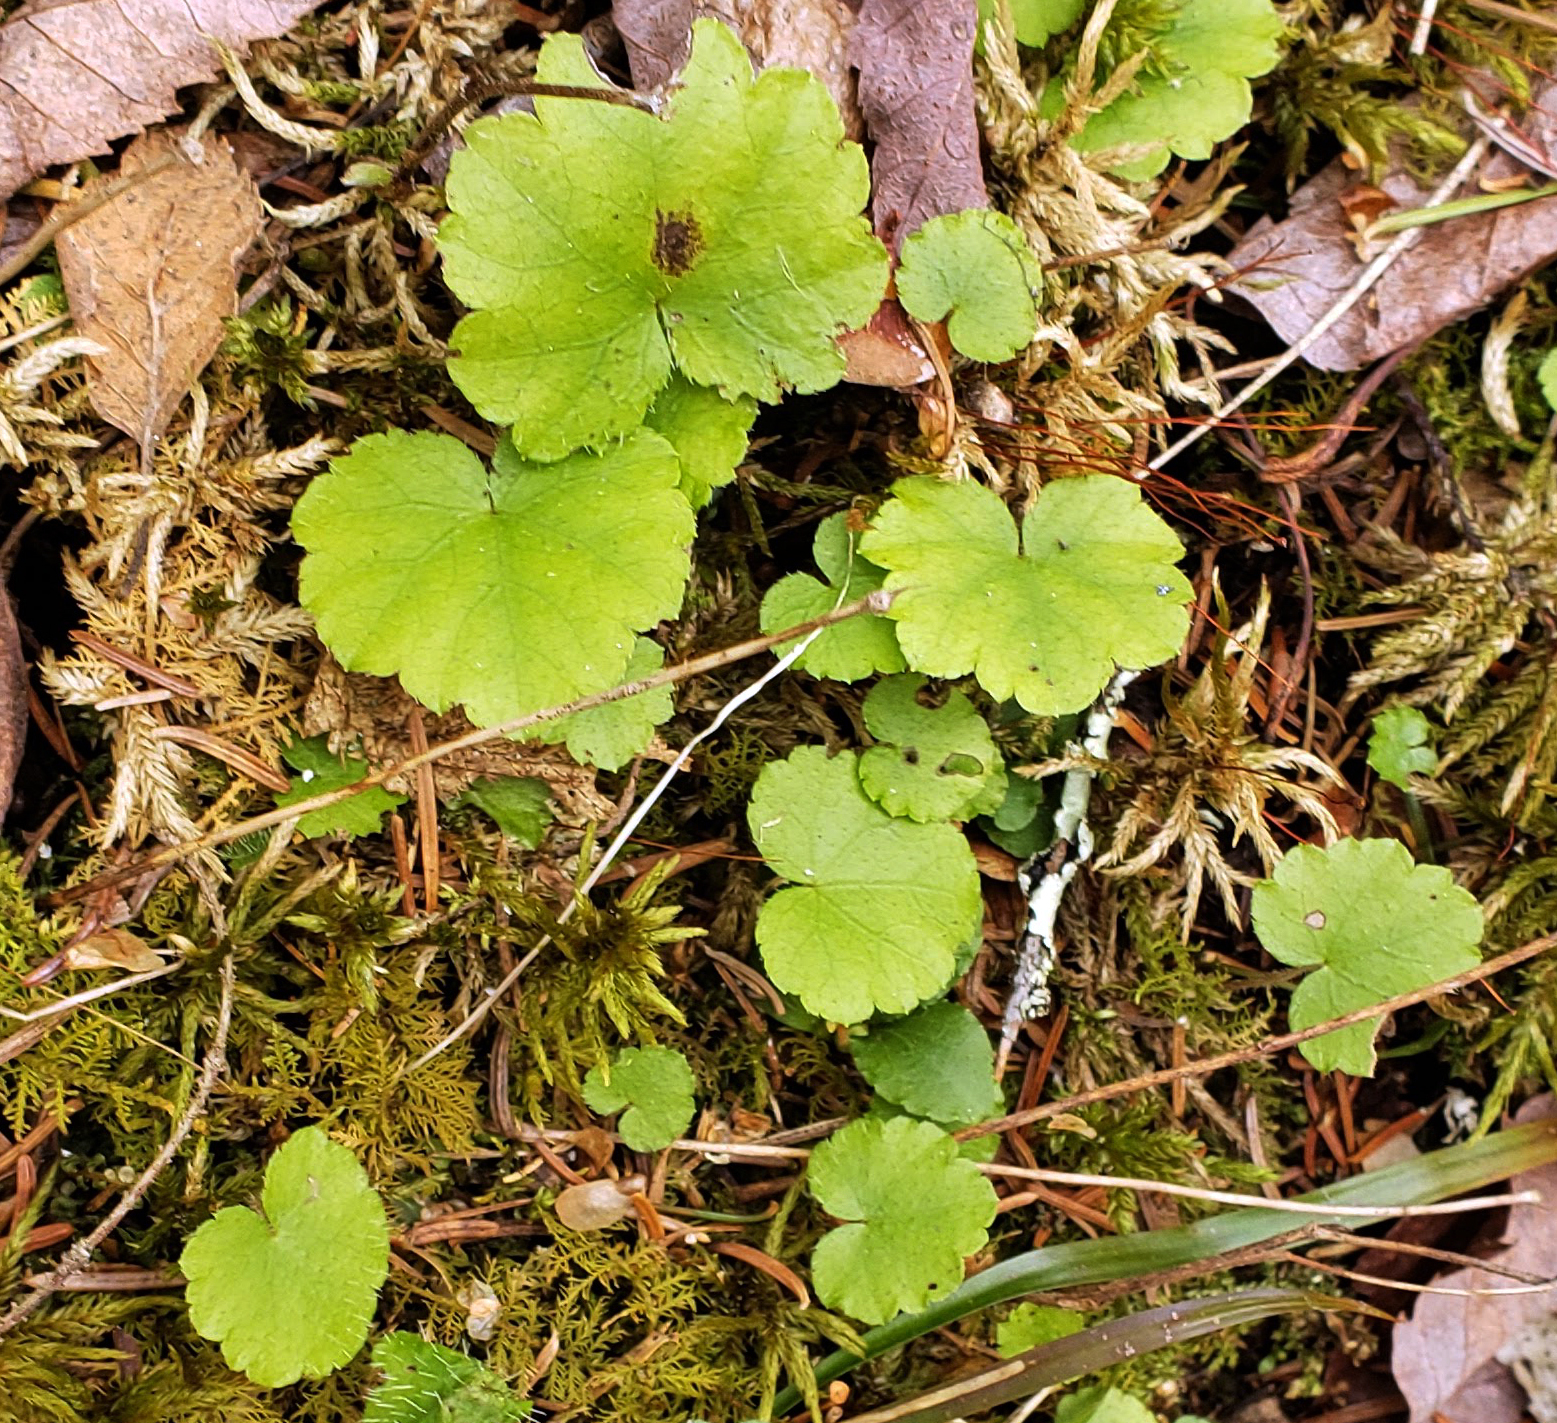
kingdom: Plantae
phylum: Tracheophyta
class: Magnoliopsida
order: Saxifragales
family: Saxifragaceae
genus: Mitella
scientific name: Mitella nuda
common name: Bare-stemmed bishop's-cap
